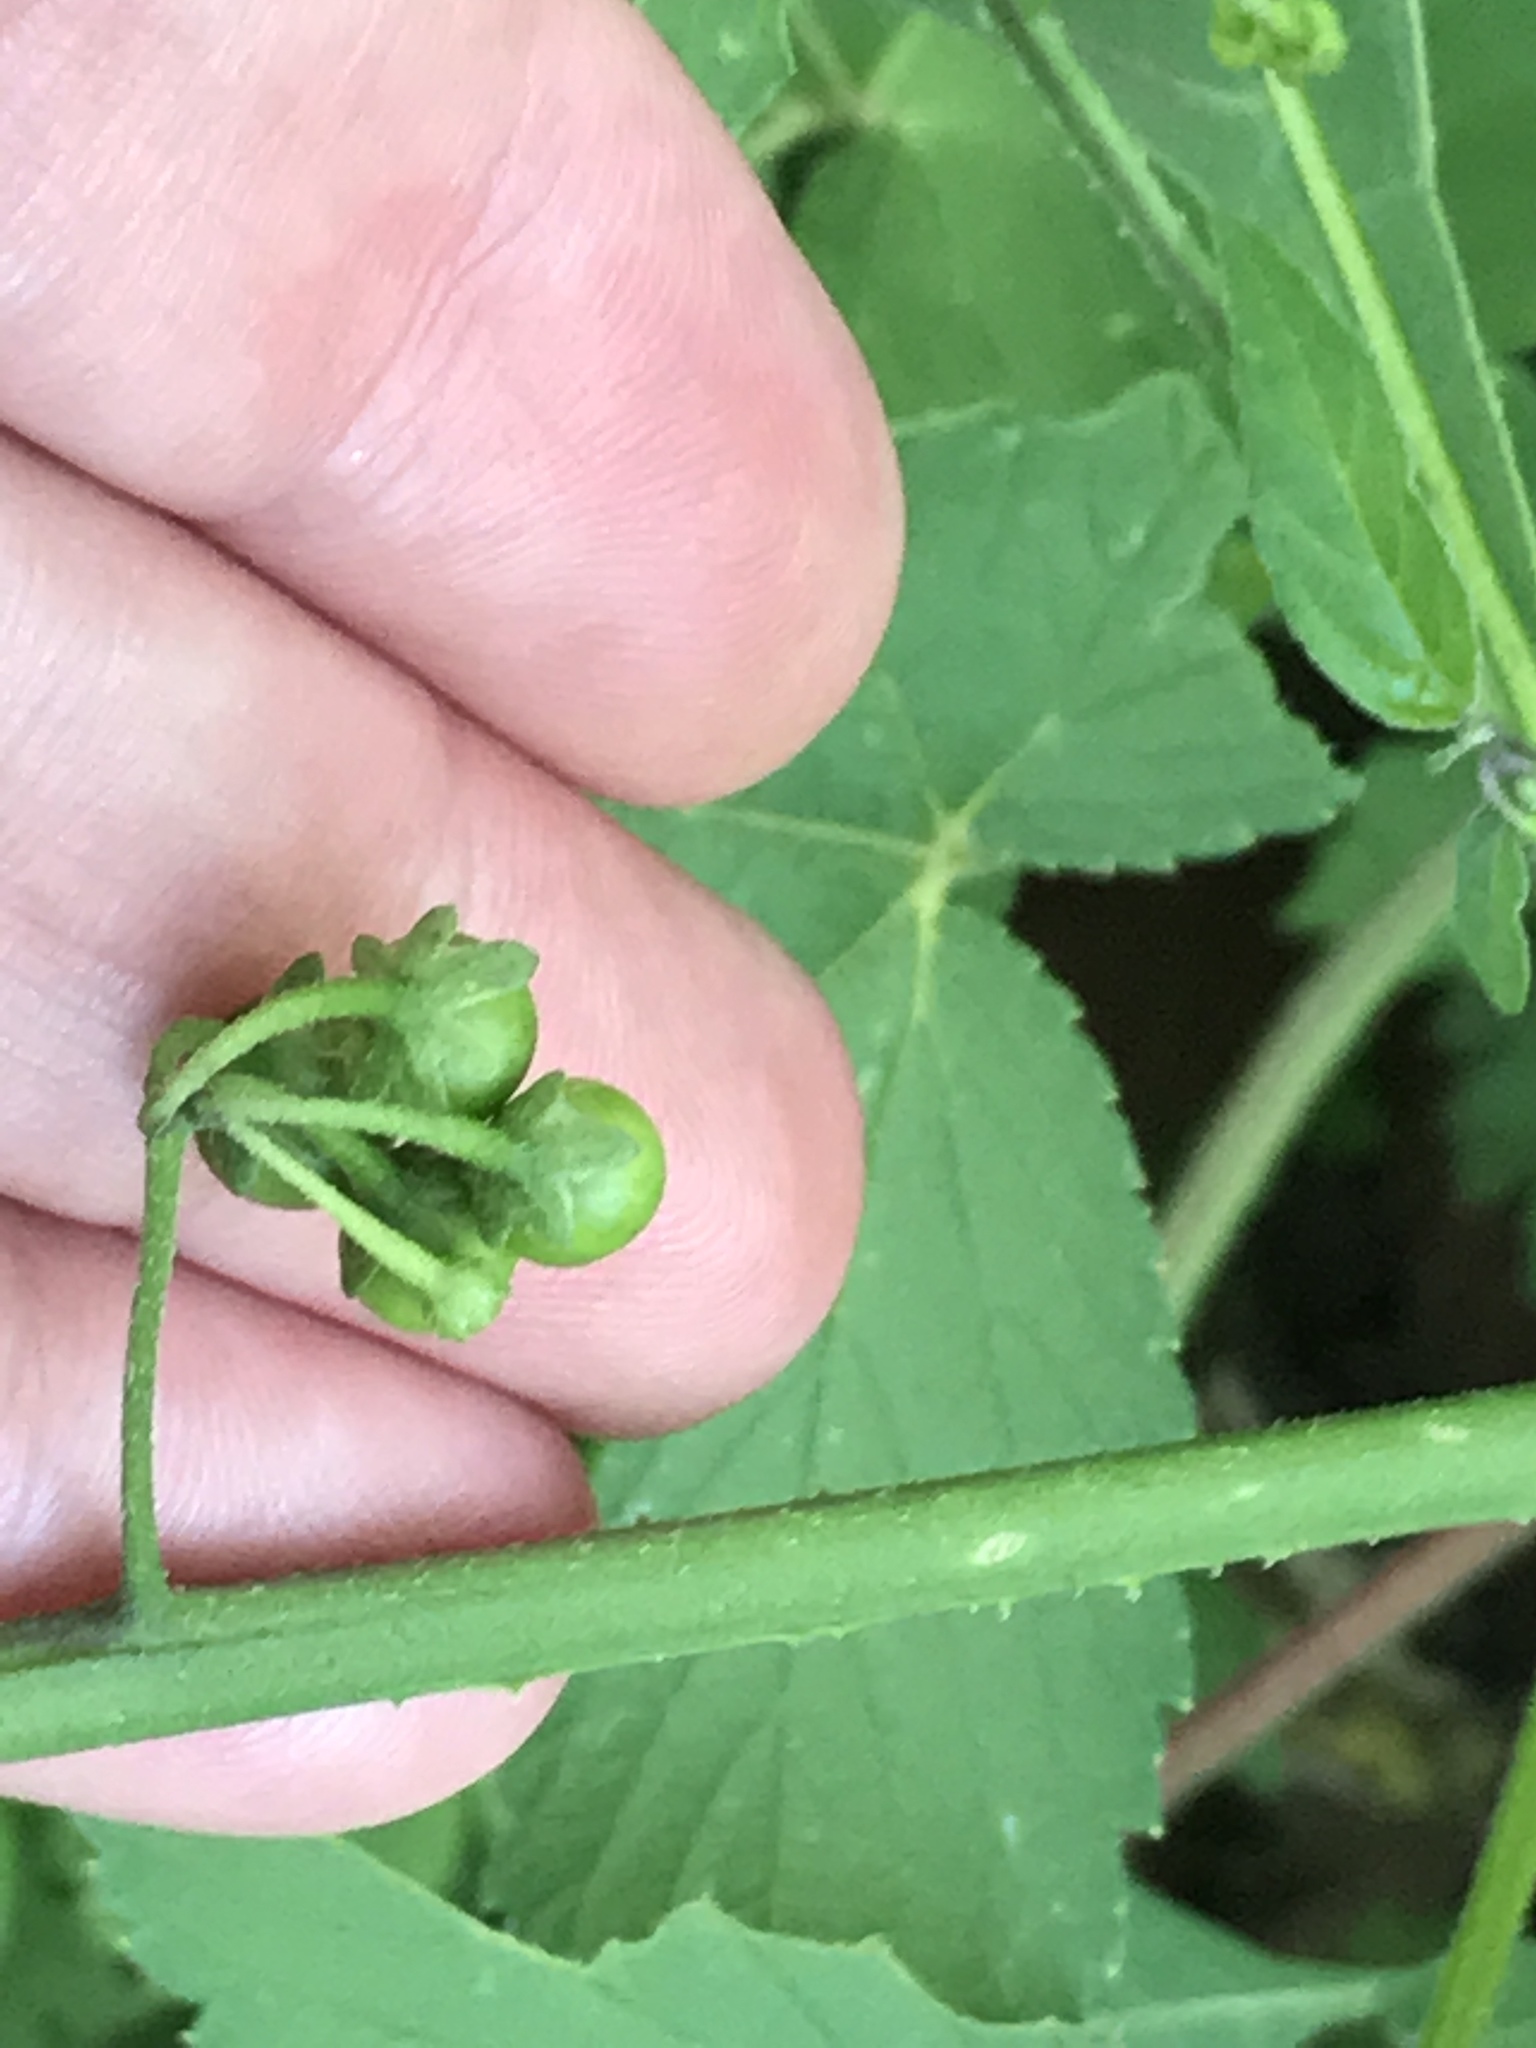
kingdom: Plantae
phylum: Tracheophyta
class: Magnoliopsida
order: Solanales
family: Solanaceae
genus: Solanum
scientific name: Solanum emulans
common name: Eastern black nightshade
